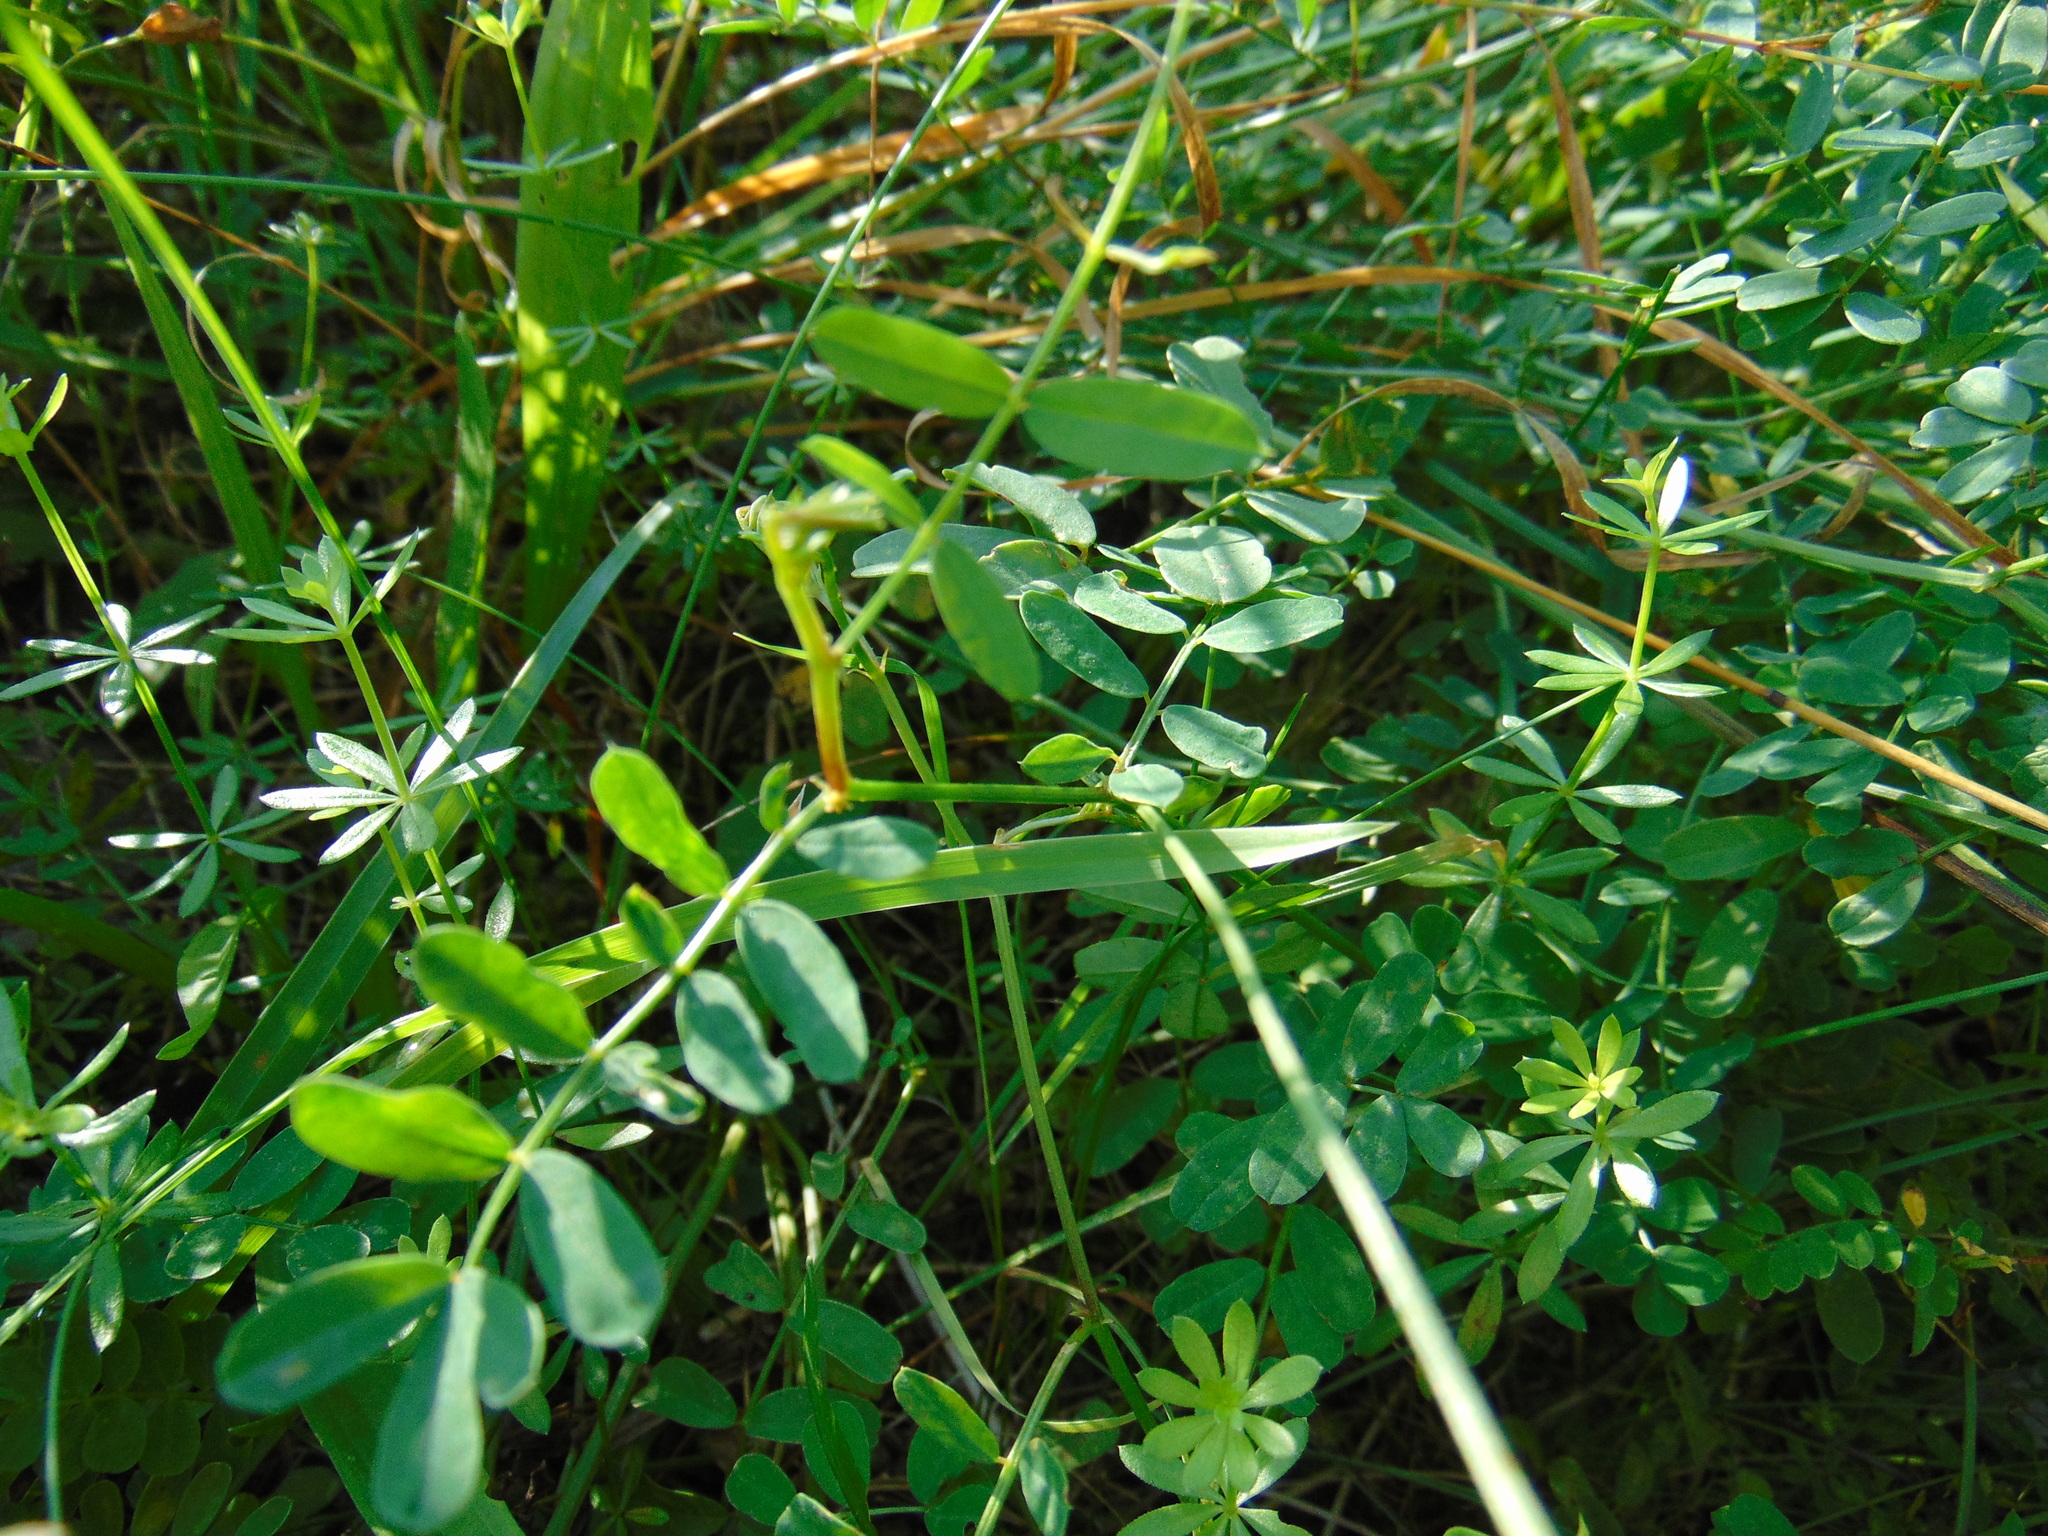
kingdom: Plantae
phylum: Tracheophyta
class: Magnoliopsida
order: Fabales
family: Fabaceae
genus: Coronilla
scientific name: Coronilla varia
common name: Crownvetch
